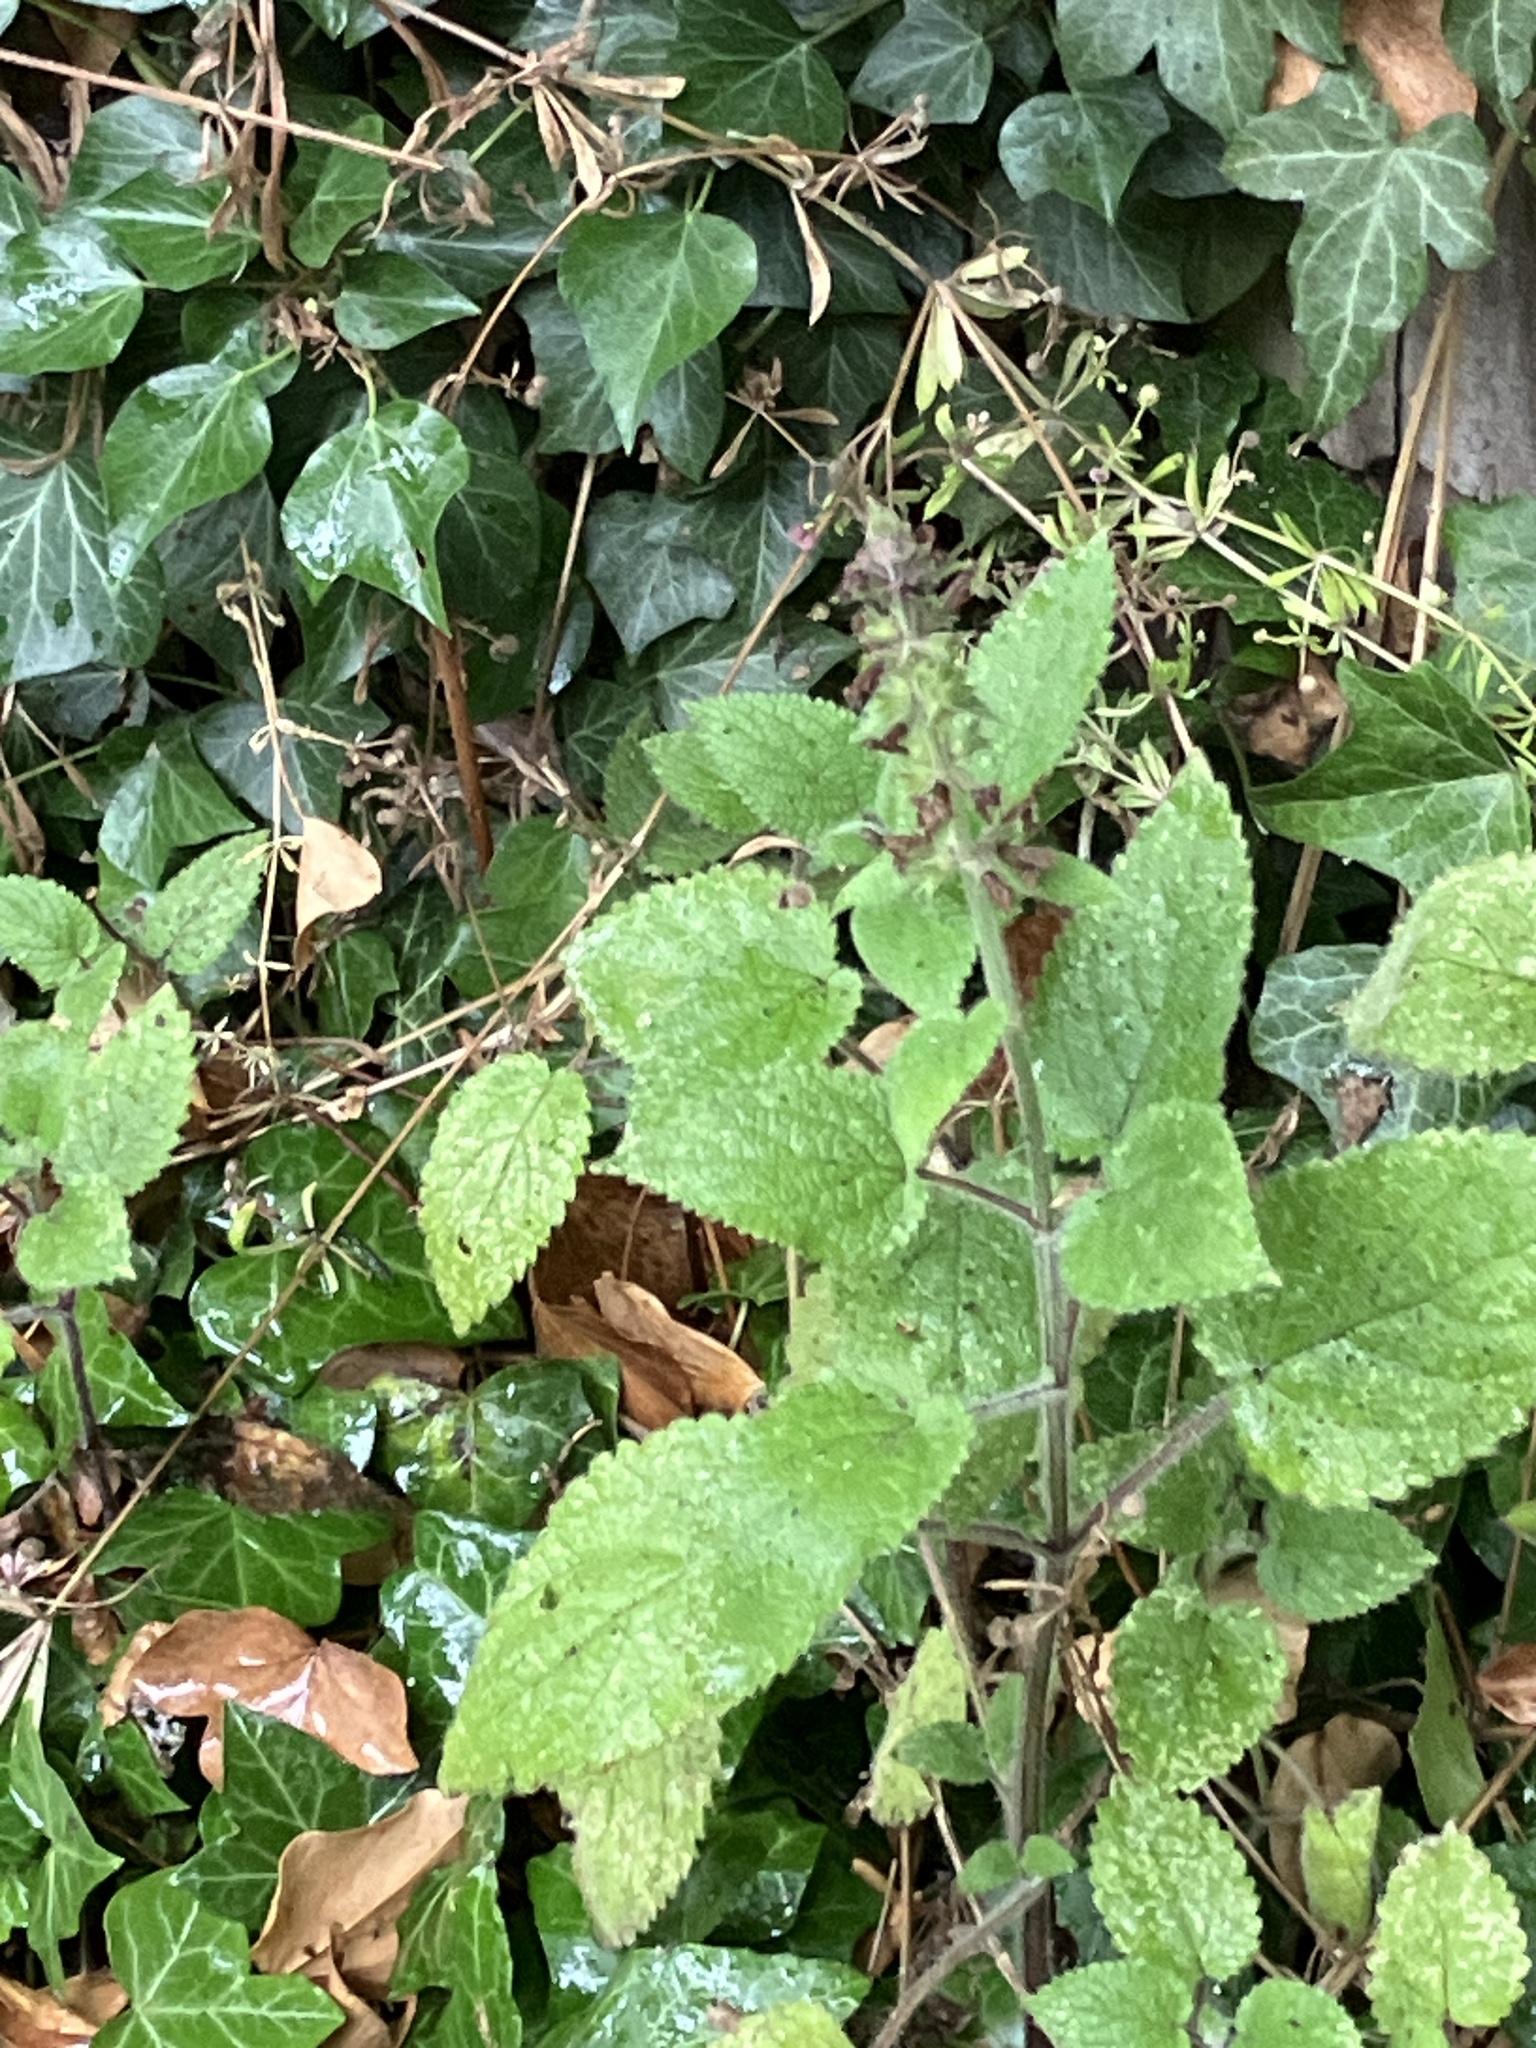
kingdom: Plantae
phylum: Tracheophyta
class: Magnoliopsida
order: Lamiales
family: Lamiaceae
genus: Stachys
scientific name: Stachys sylvatica
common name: Hedge woundwort
